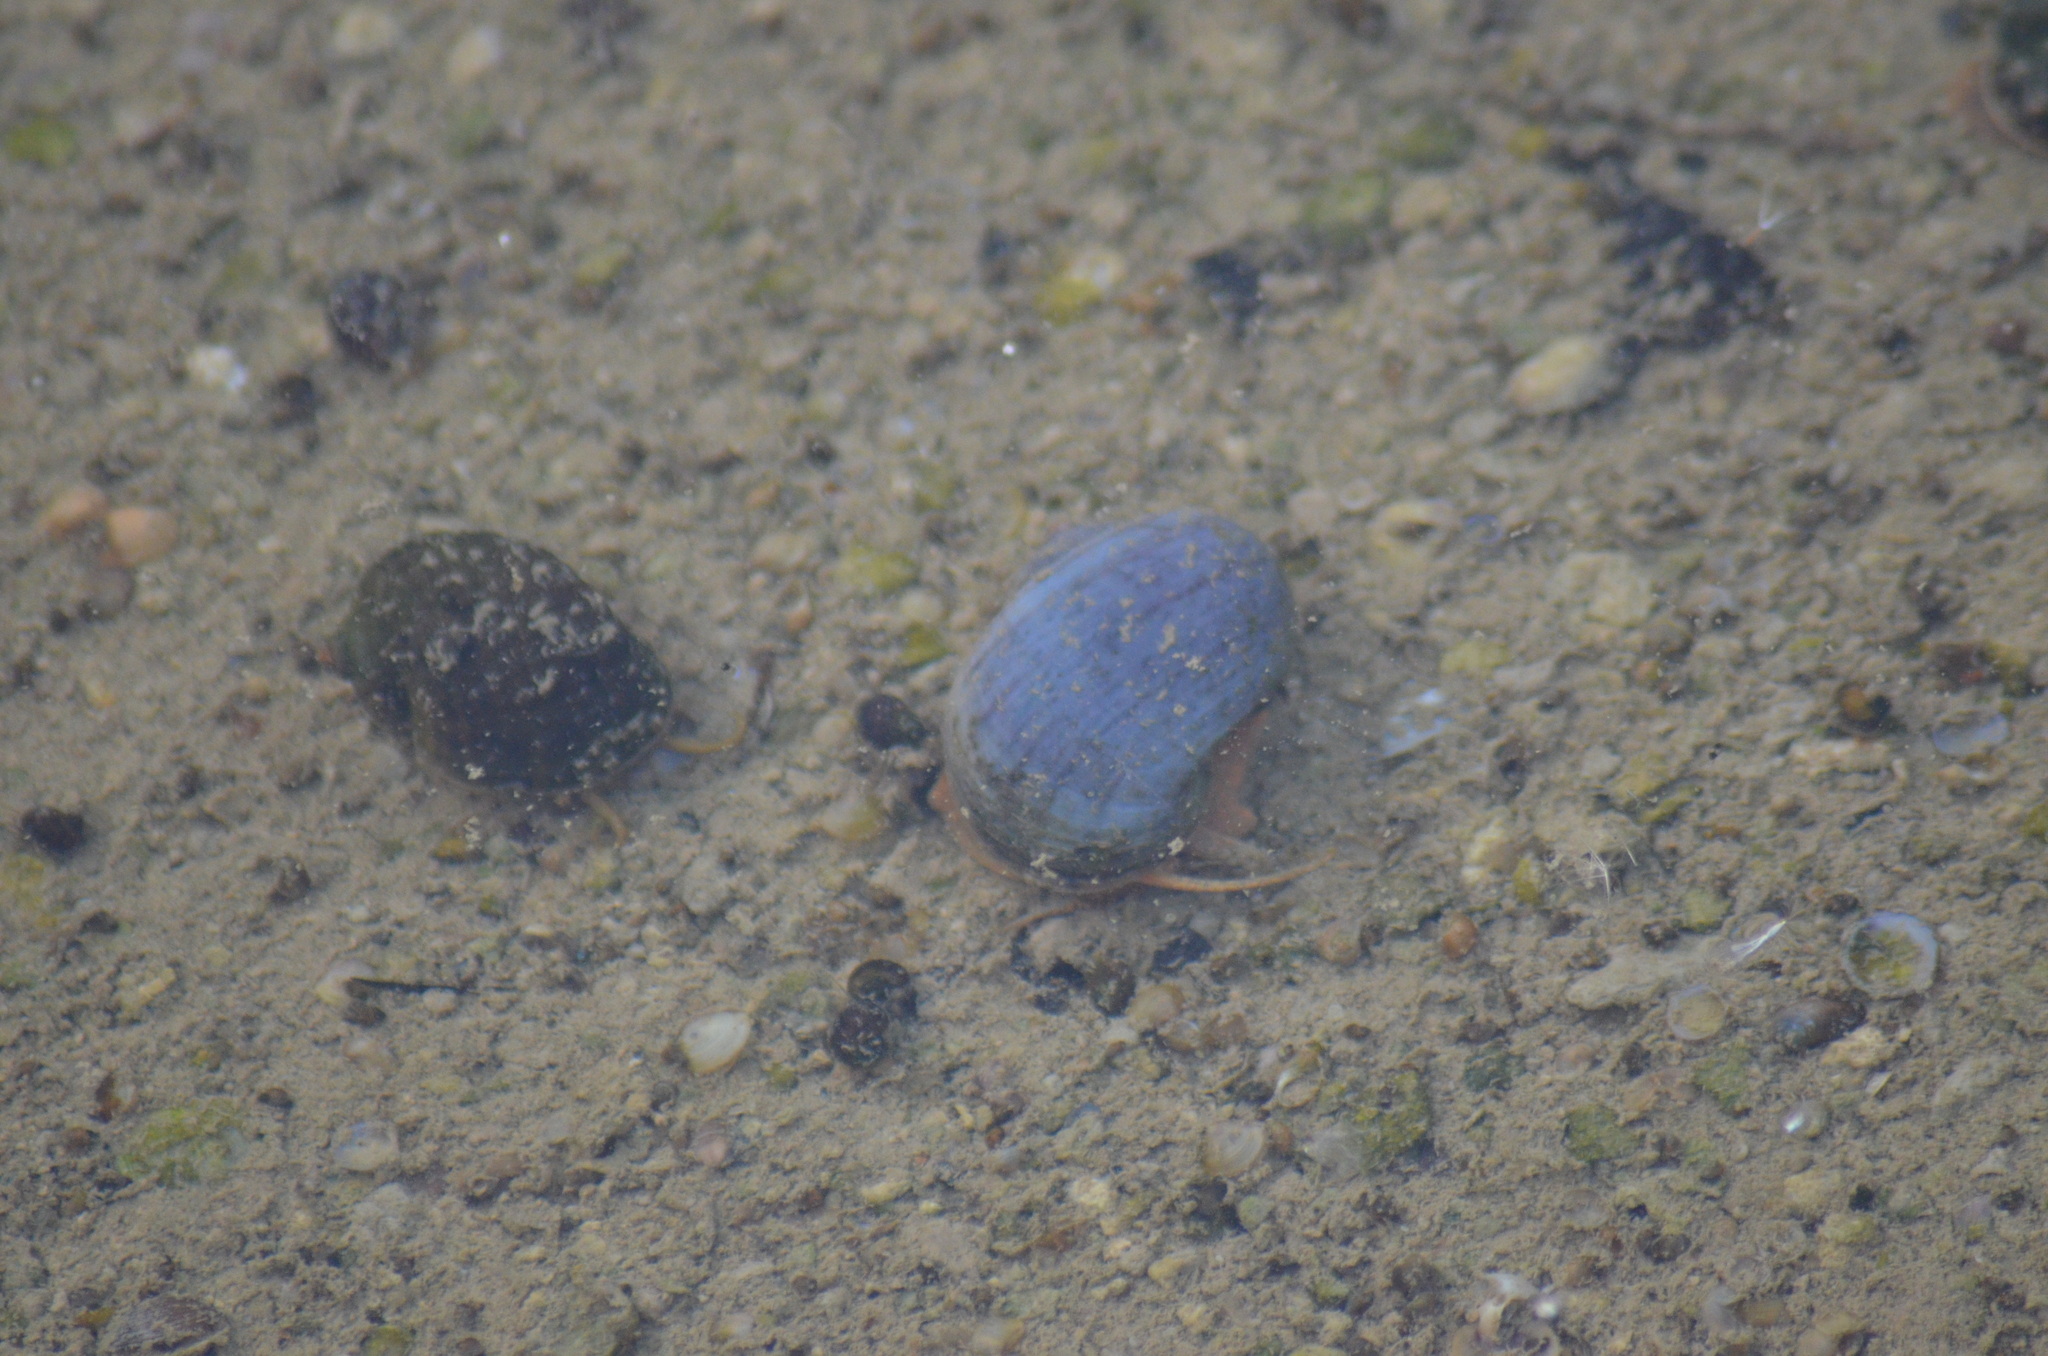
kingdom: Animalia
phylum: Mollusca
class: Gastropoda
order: Architaenioglossa
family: Ampullariidae
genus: Pomacea
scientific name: Pomacea maculata
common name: Giant applesnail
